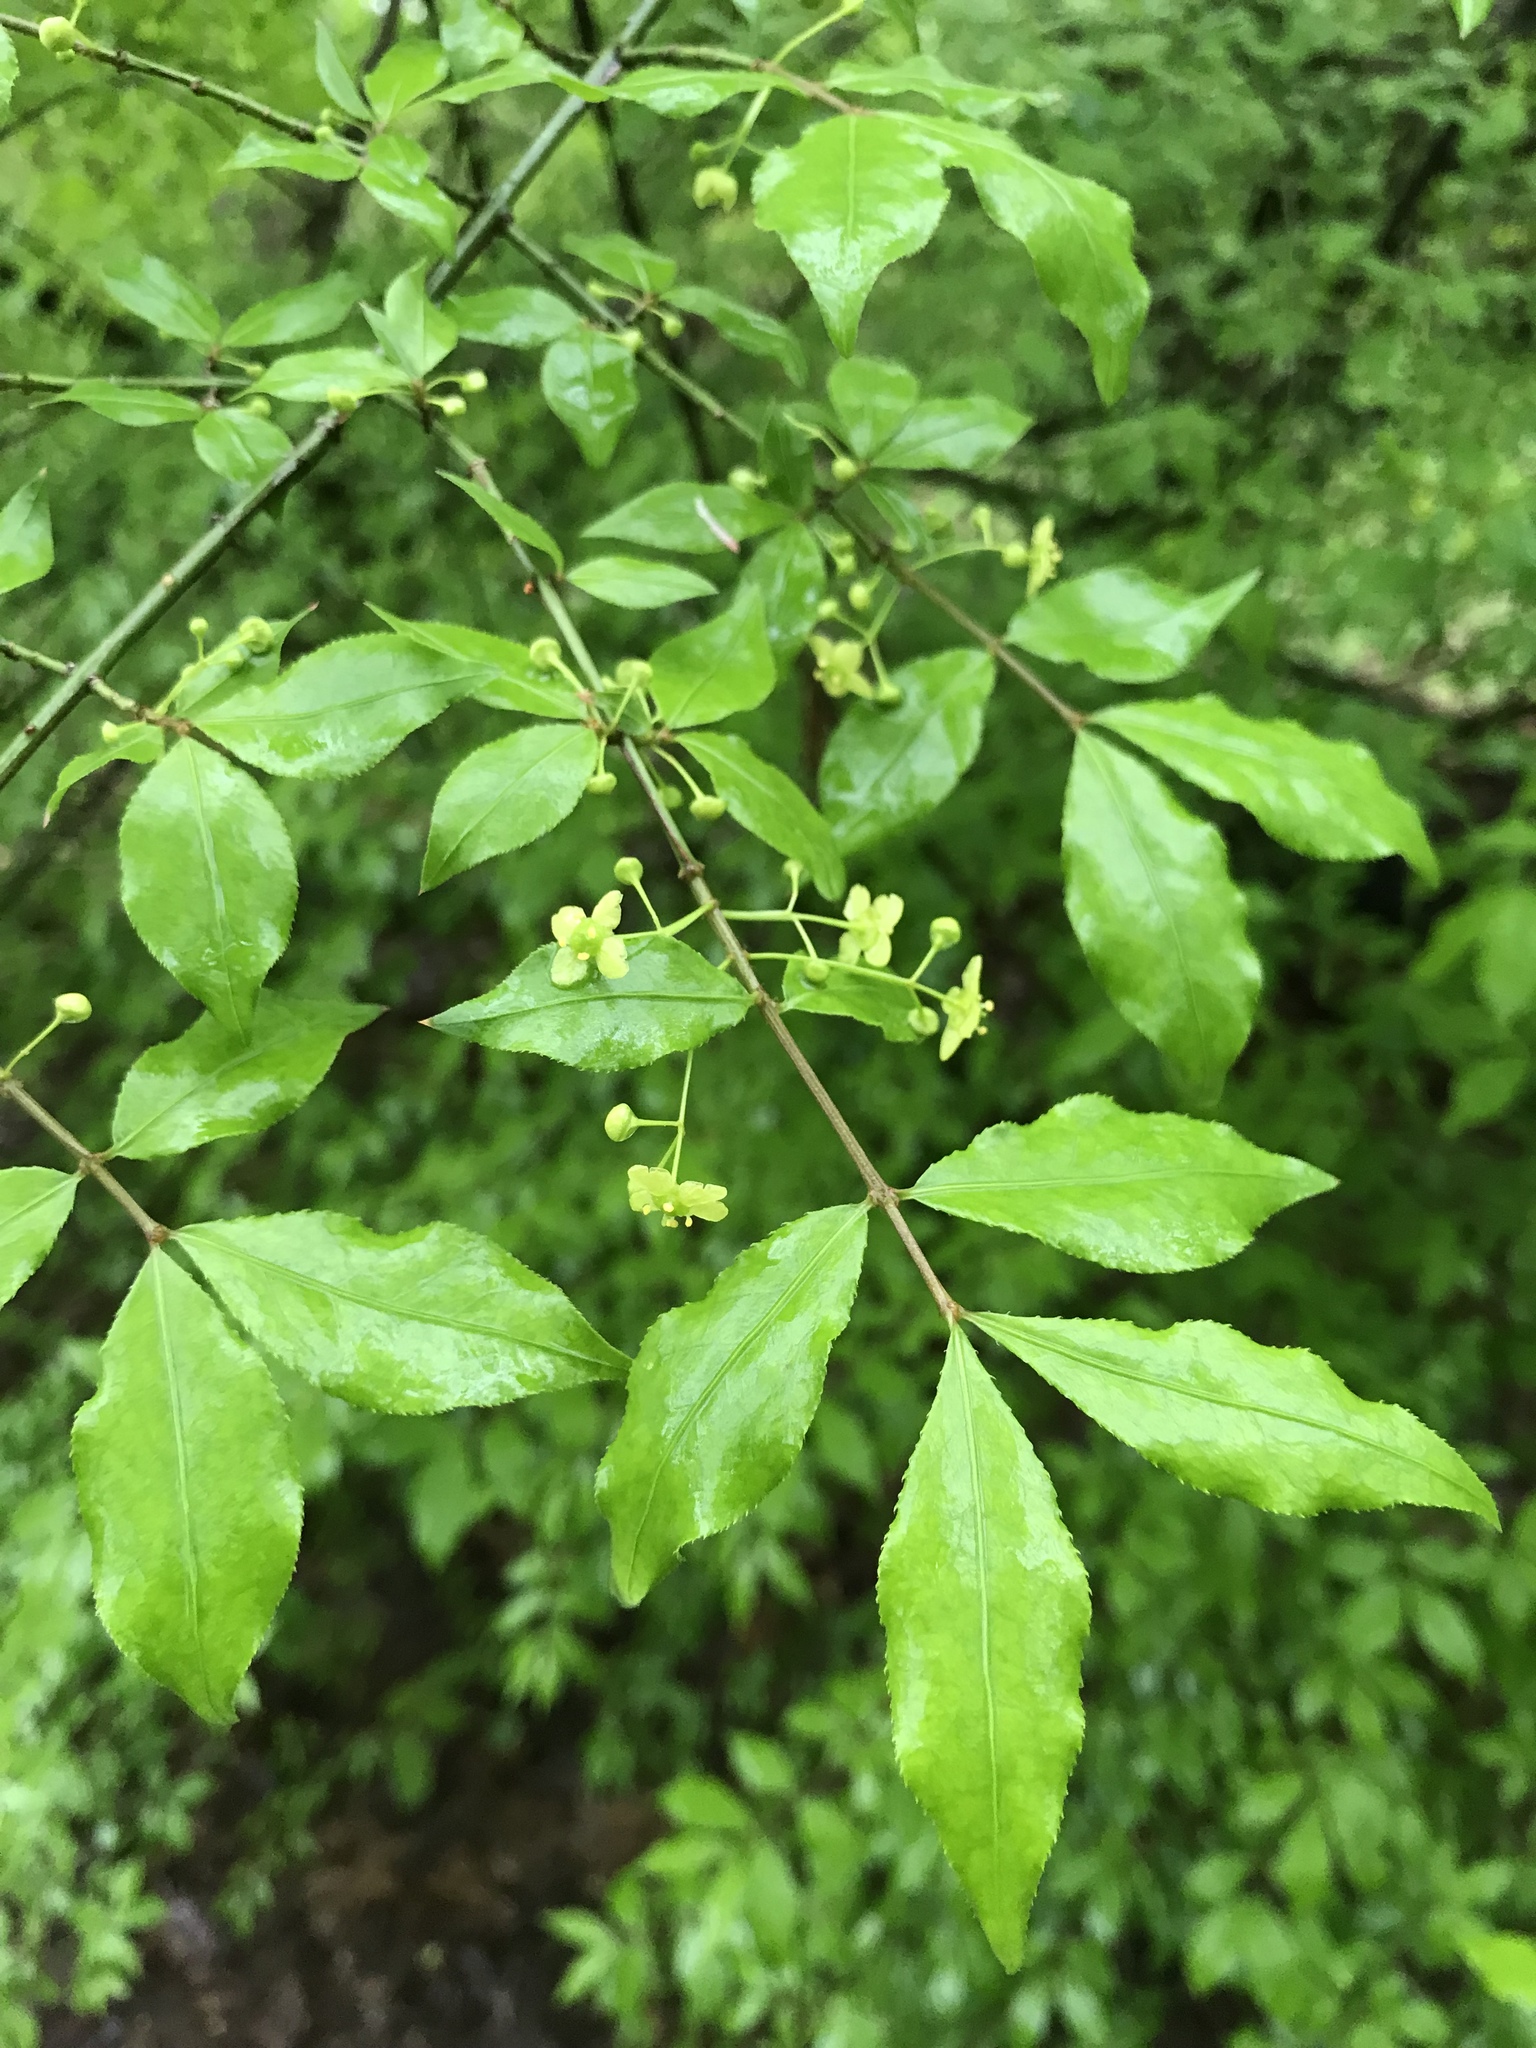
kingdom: Plantae
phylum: Tracheophyta
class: Magnoliopsida
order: Celastrales
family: Celastraceae
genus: Euonymus
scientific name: Euonymus alatus
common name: Winged euonymus
